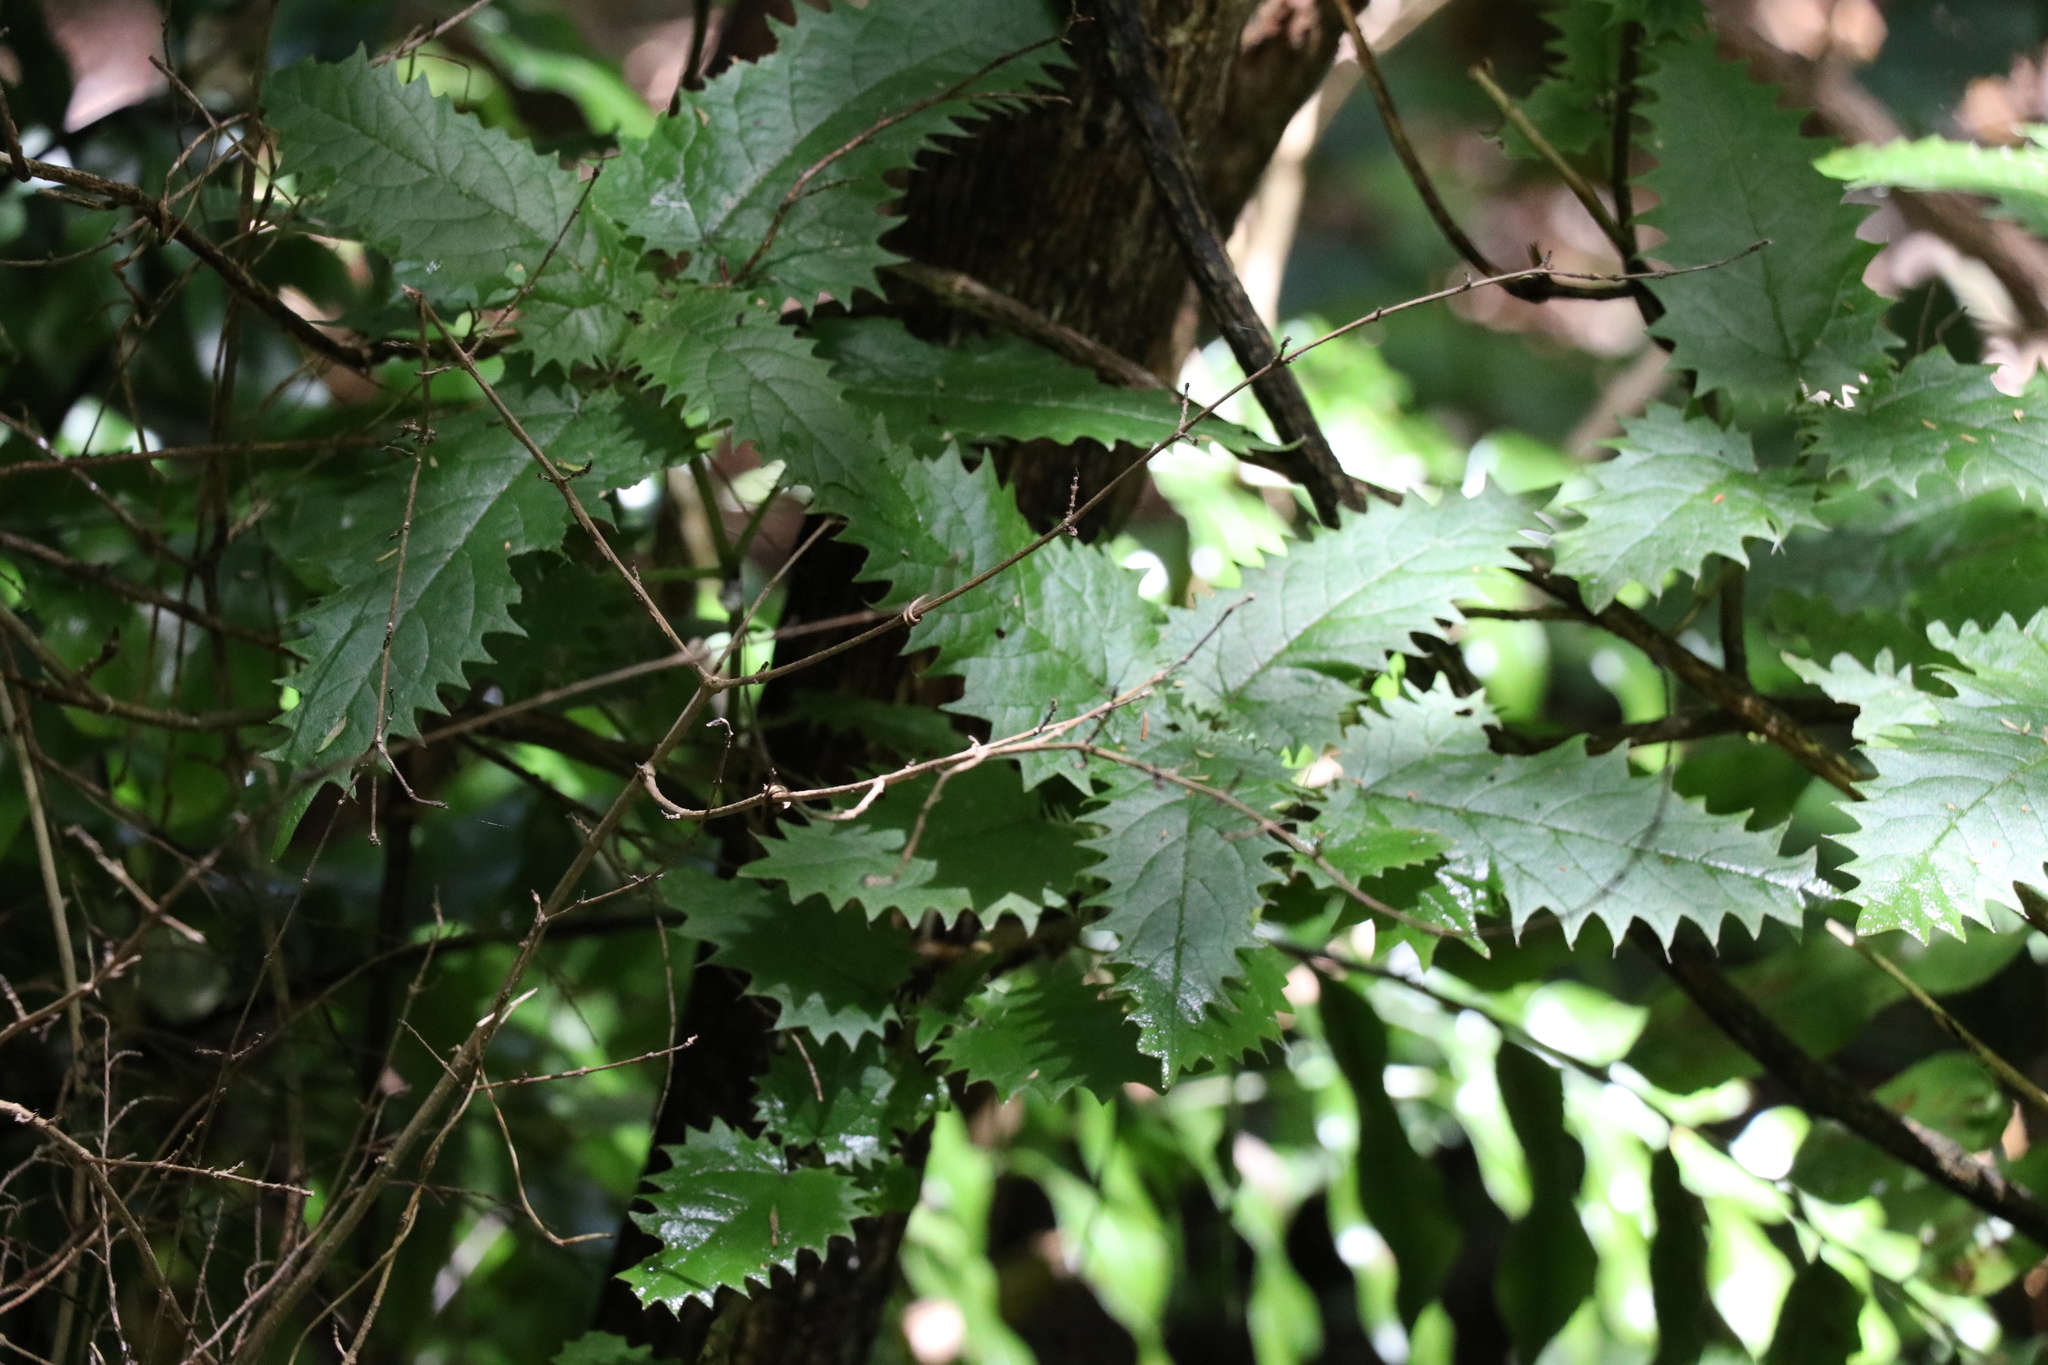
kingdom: Plantae
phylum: Tracheophyta
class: Magnoliopsida
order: Rosales
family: Urticaceae
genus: Urtica
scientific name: Urtica ferox
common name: Tree nettle
